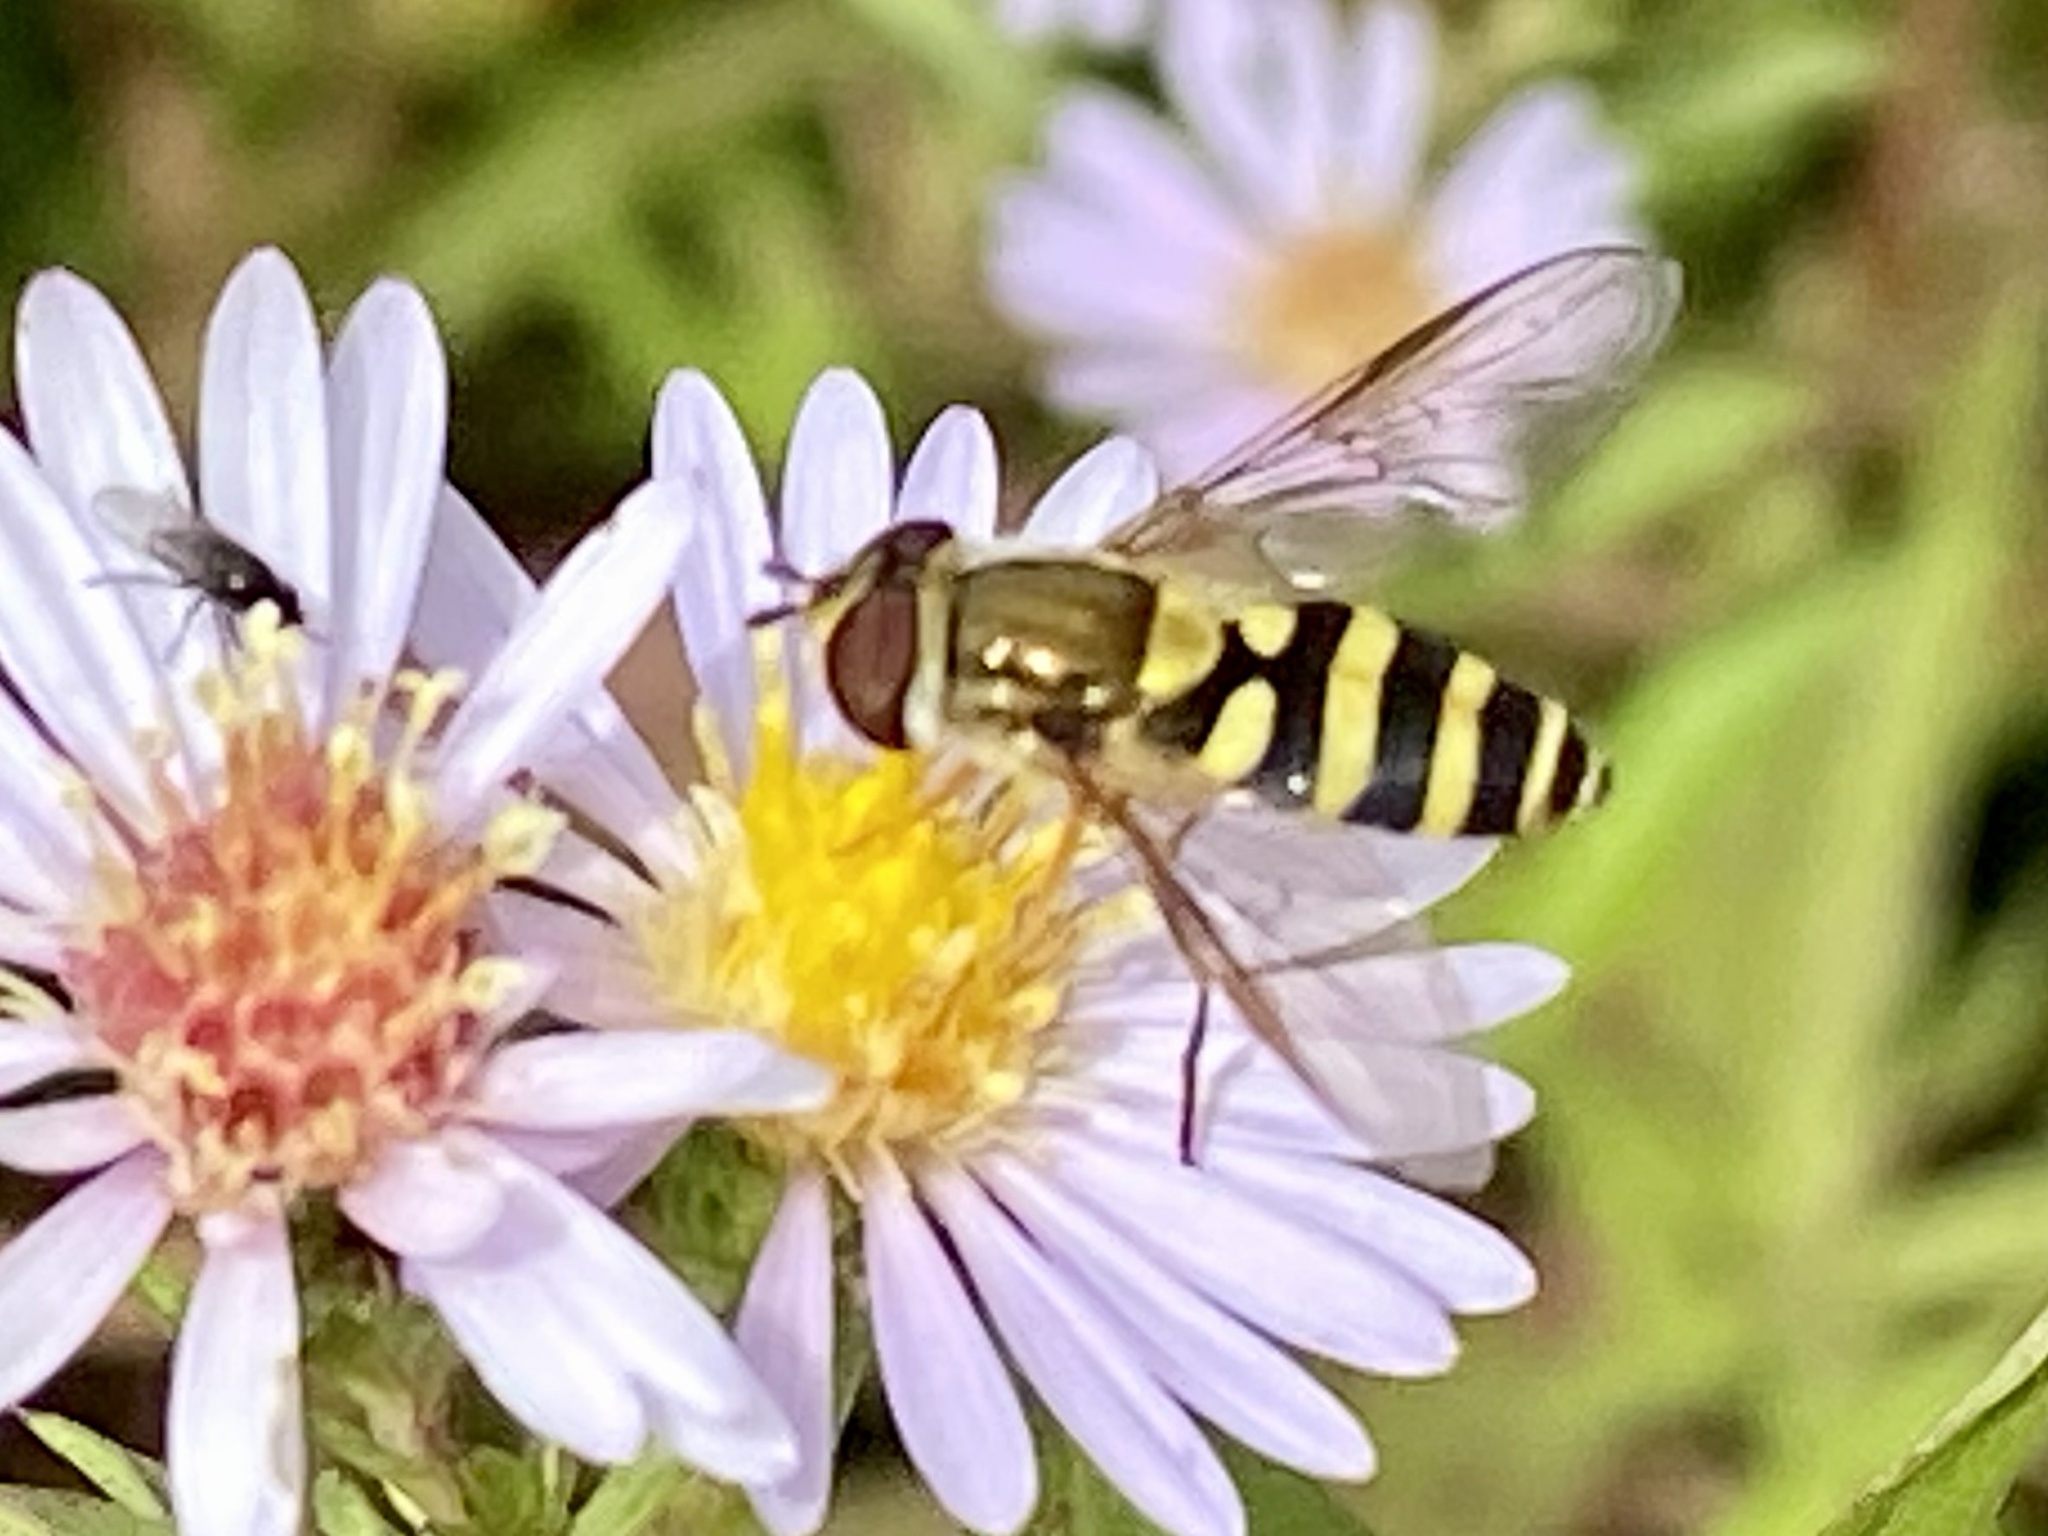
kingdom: Animalia
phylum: Arthropoda
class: Insecta
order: Diptera
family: Syrphidae
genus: Syrphus
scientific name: Syrphus
